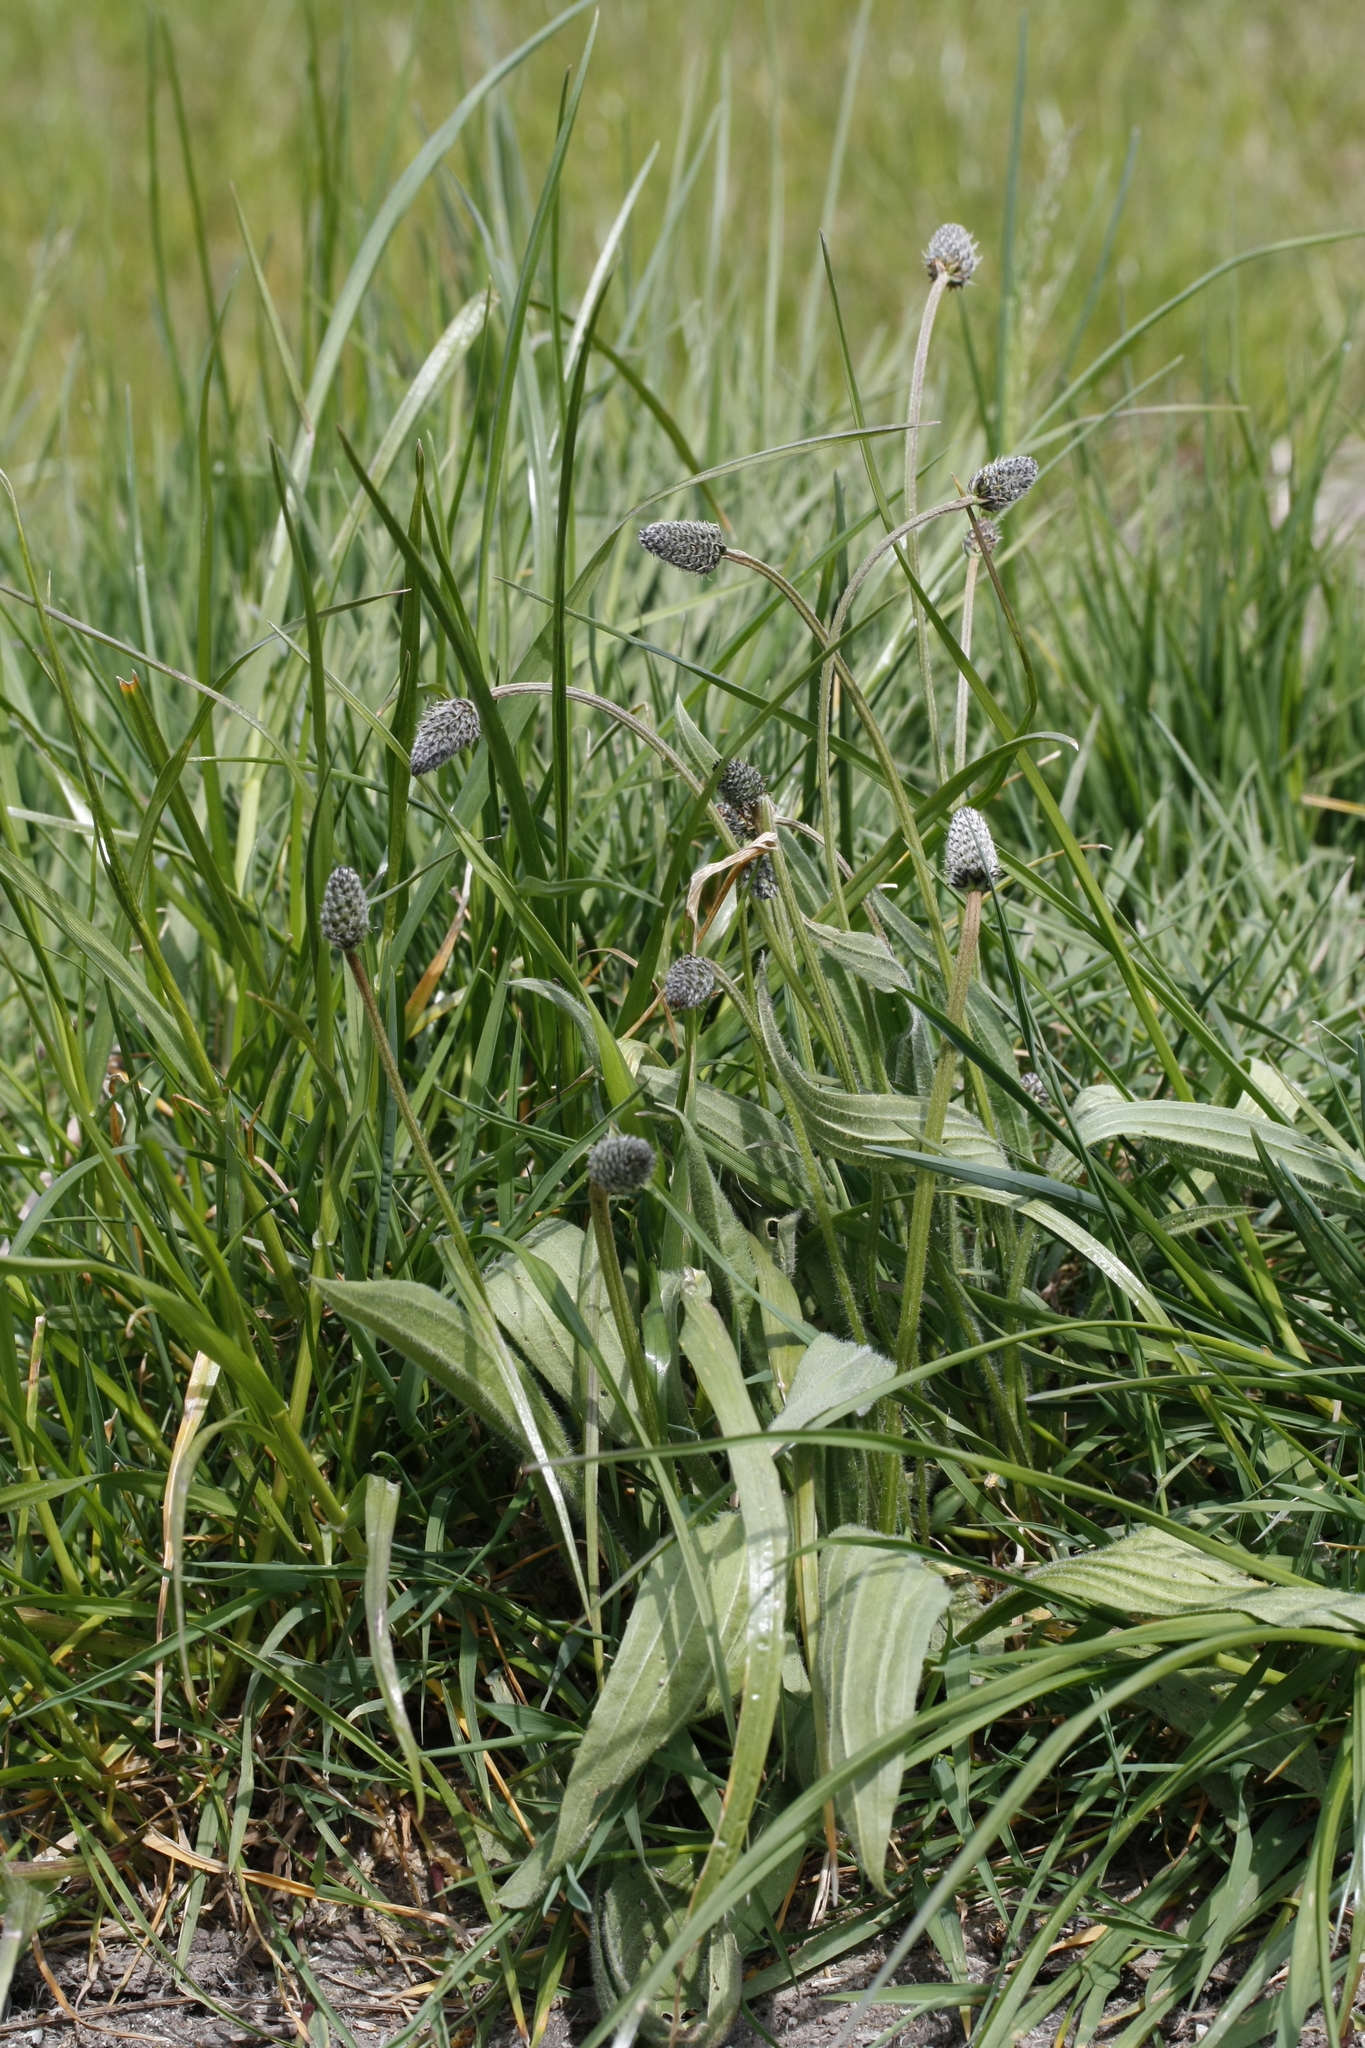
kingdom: Plantae
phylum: Tracheophyta
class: Magnoliopsida
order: Lamiales
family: Plantaginaceae
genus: Plantago
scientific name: Plantago lanceolata
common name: Ribwort plantain
